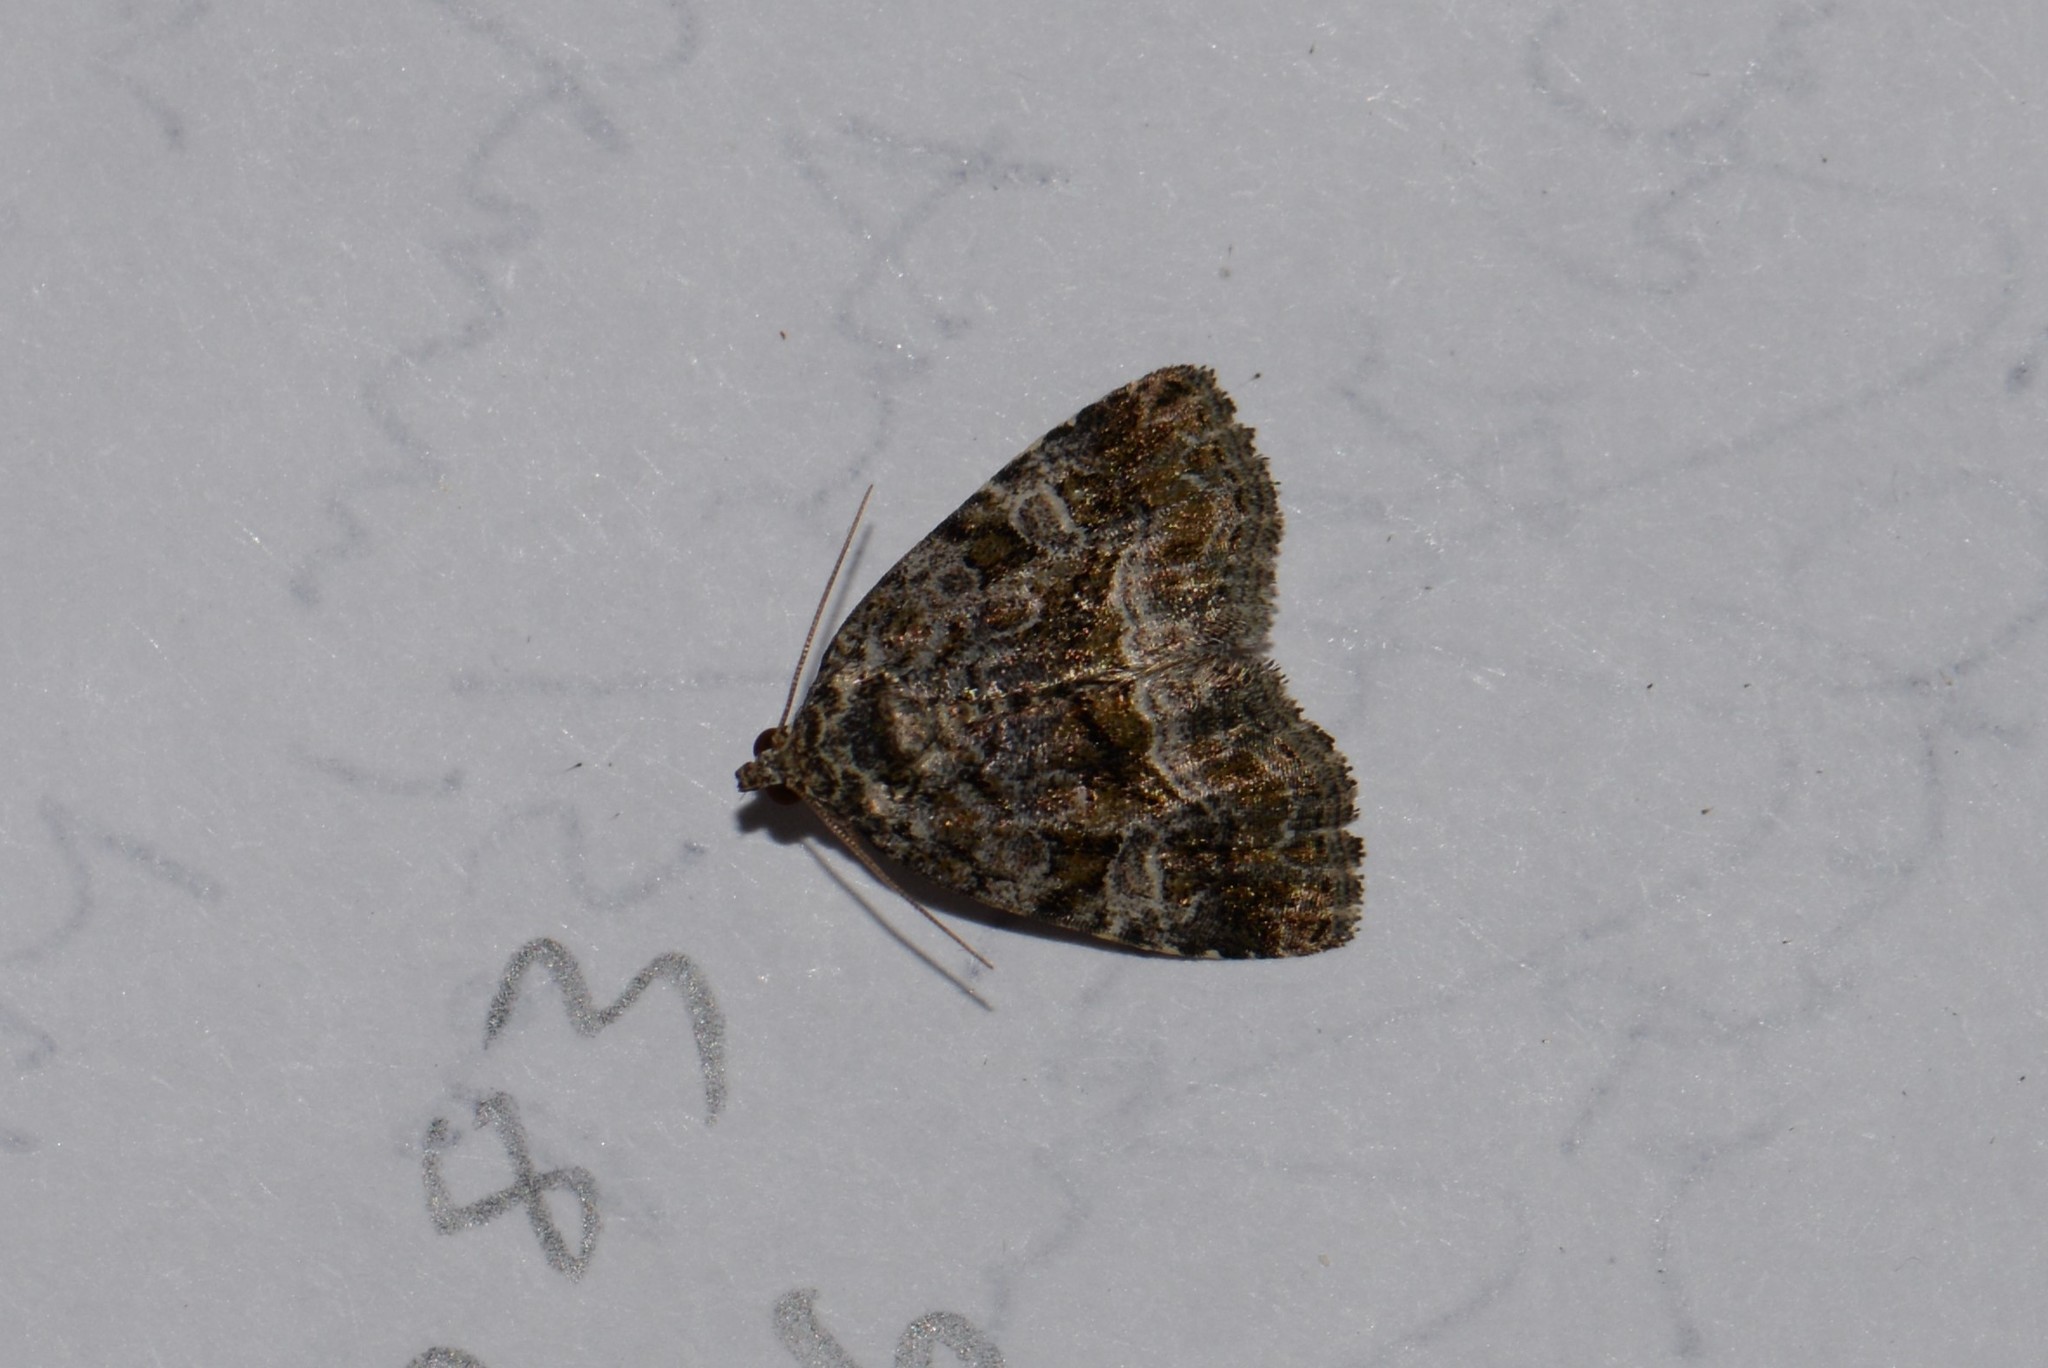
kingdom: Animalia
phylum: Arthropoda
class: Insecta
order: Lepidoptera
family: Noctuidae
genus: Protodeltote
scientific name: Protodeltote muscosula
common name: Large mossy glyph
